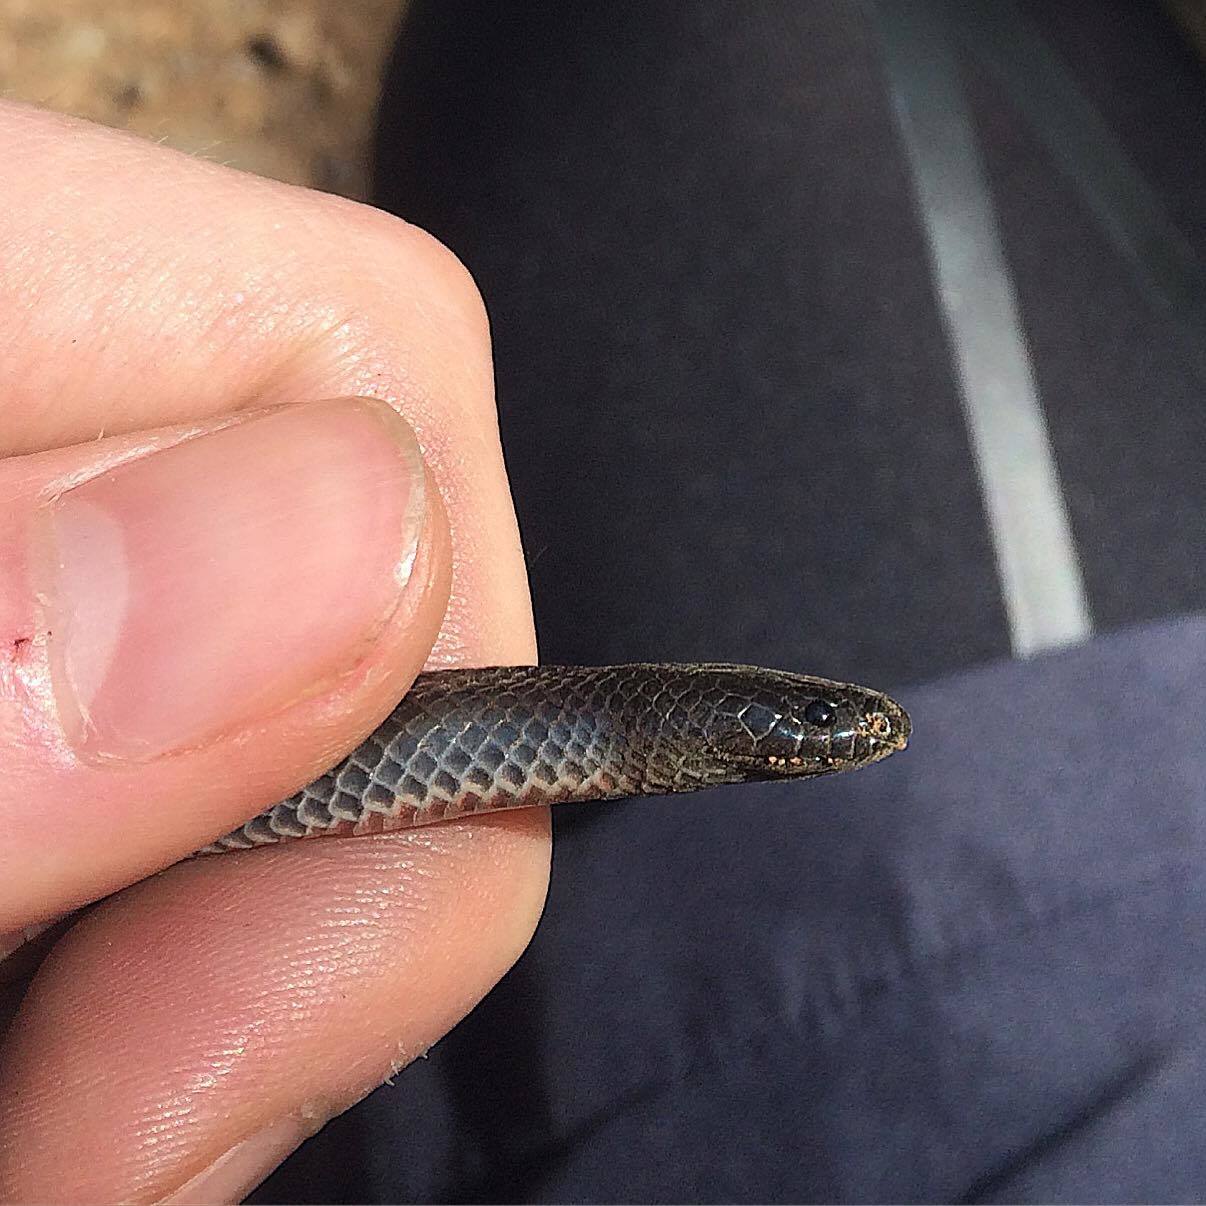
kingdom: Animalia
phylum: Chordata
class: Squamata
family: Elapidae
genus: Cryptophis
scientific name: Cryptophis nigrescens
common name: Eastern small-eyed snake
